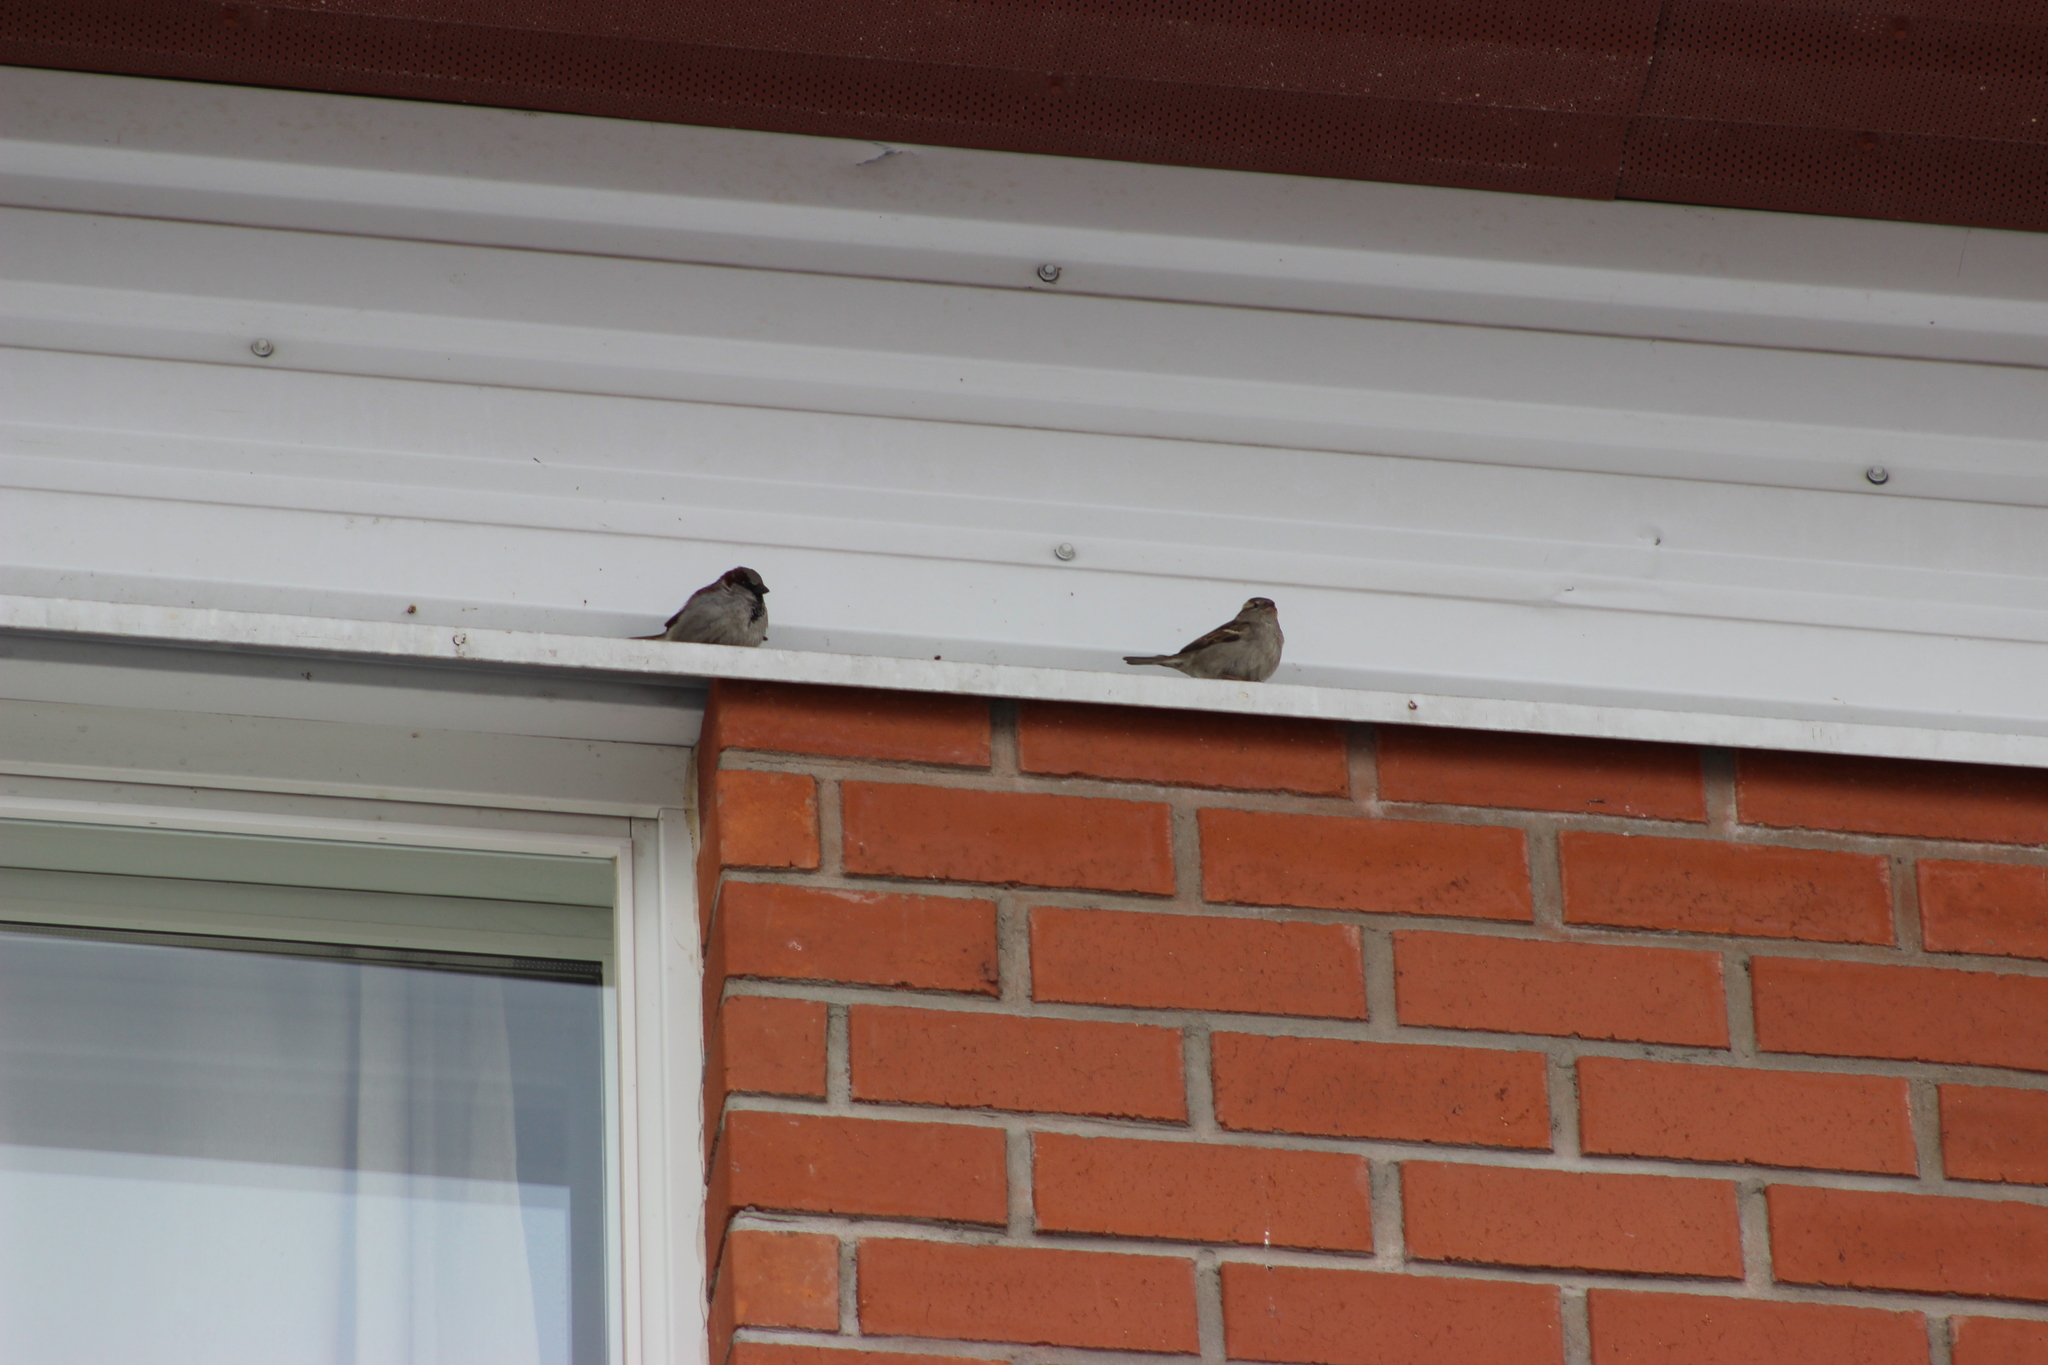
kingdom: Animalia
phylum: Chordata
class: Aves
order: Passeriformes
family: Passeridae
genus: Passer
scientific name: Passer domesticus
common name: House sparrow
